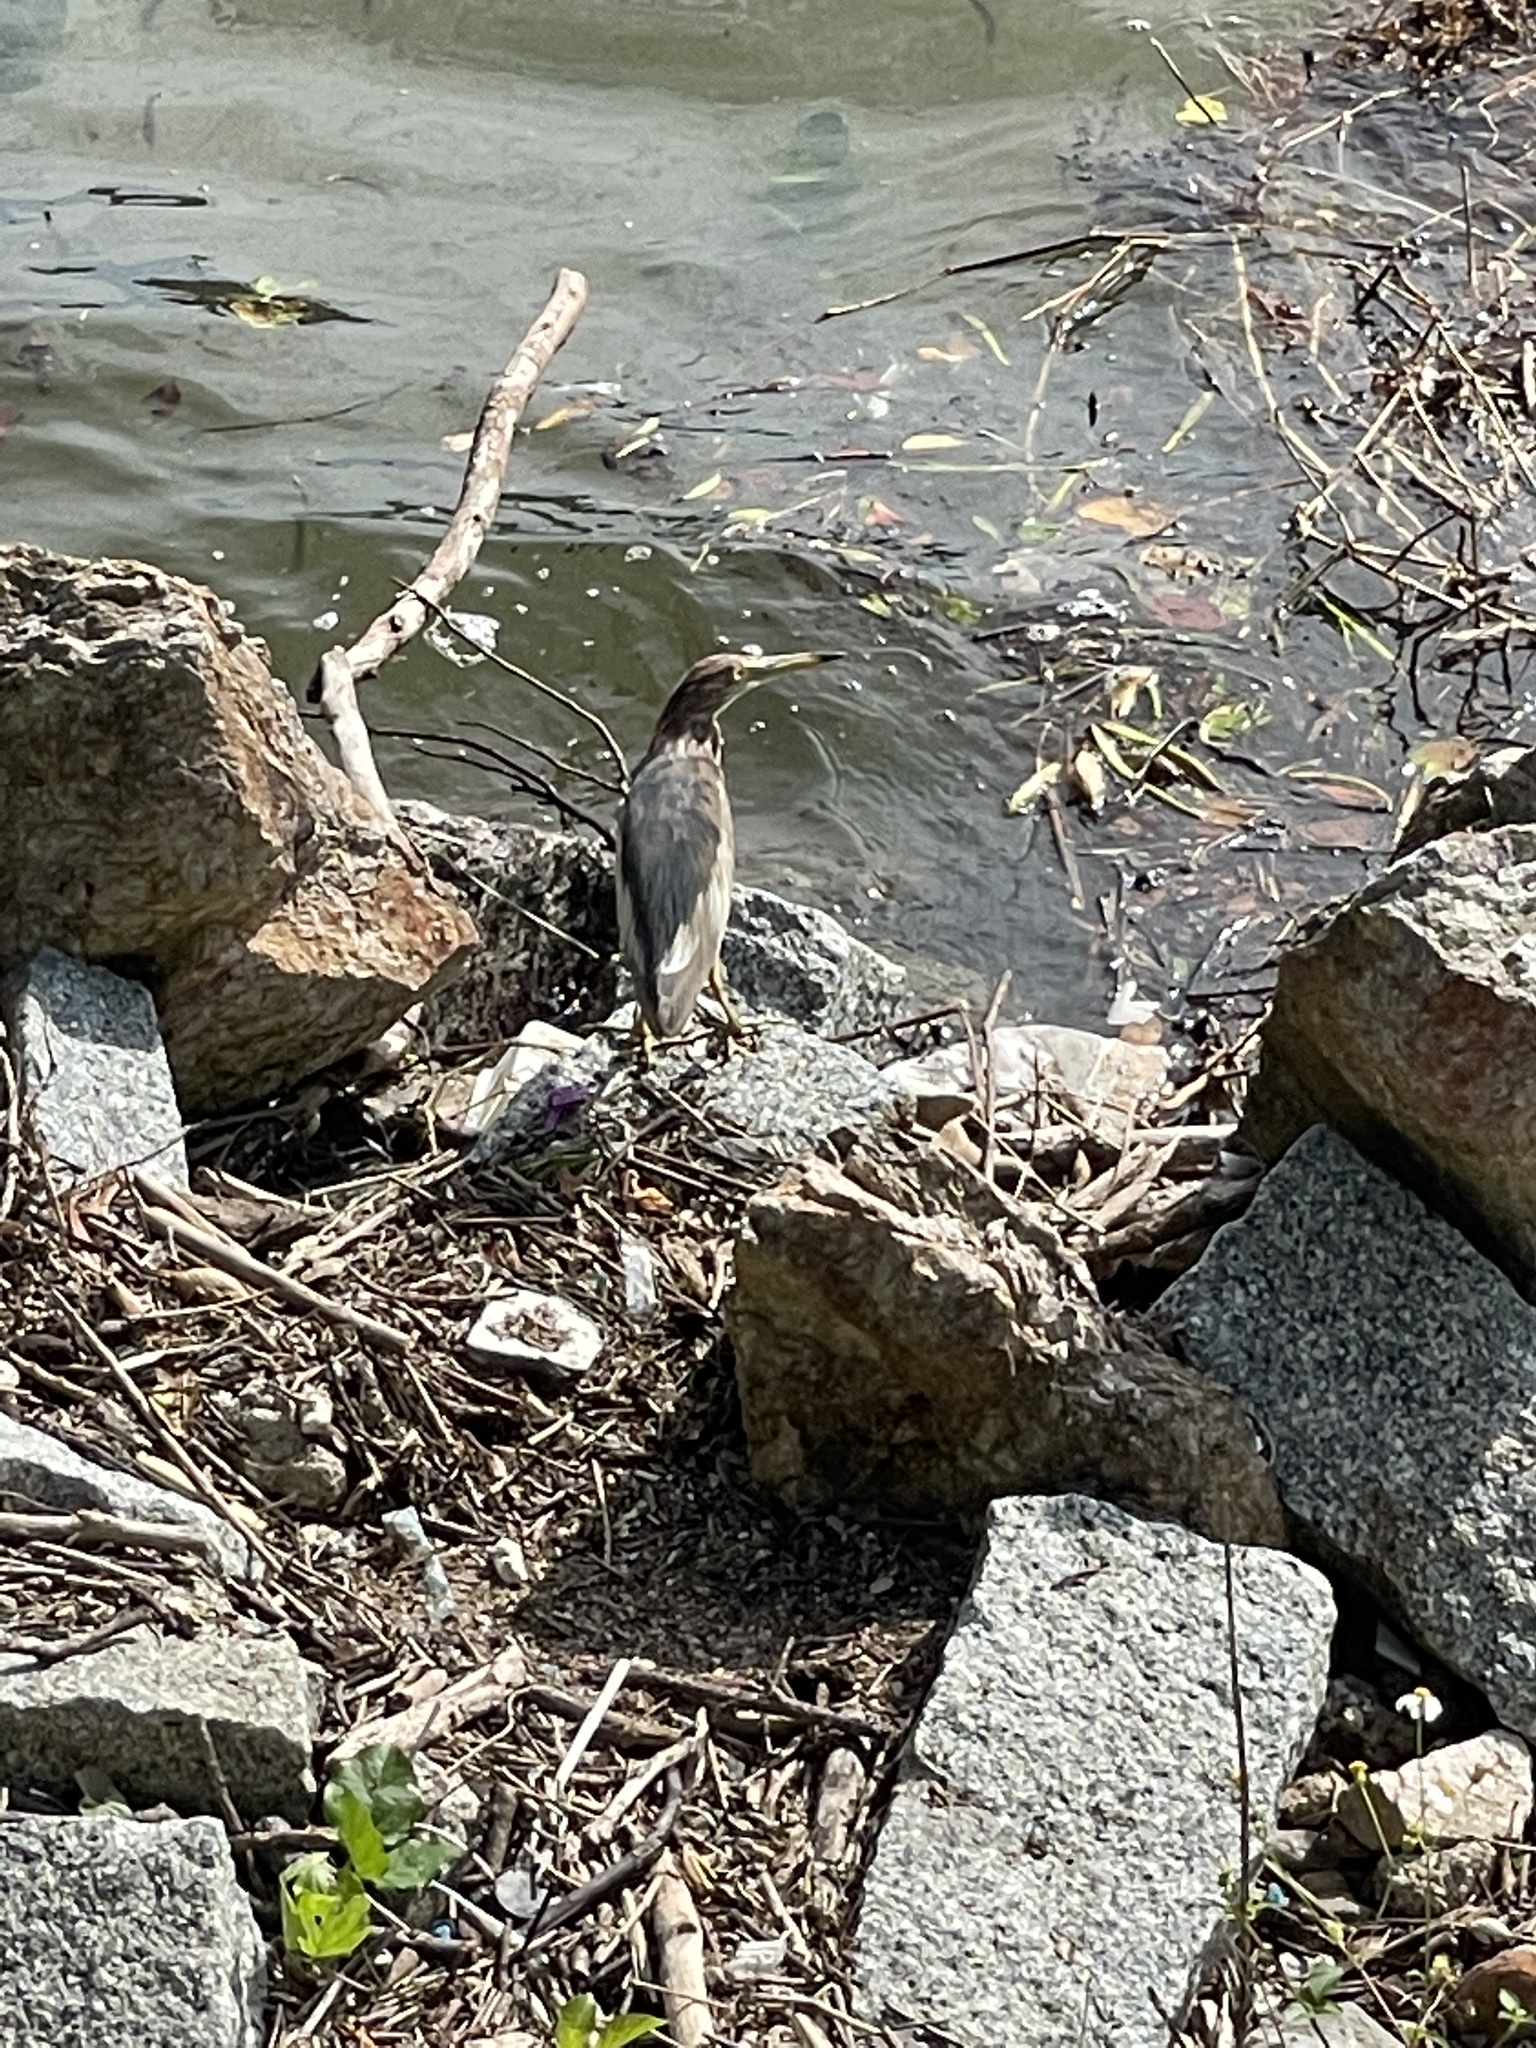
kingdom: Animalia
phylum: Chordata
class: Aves
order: Pelecaniformes
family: Ardeidae
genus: Ardeola
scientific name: Ardeola bacchus
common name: Chinese pond heron
